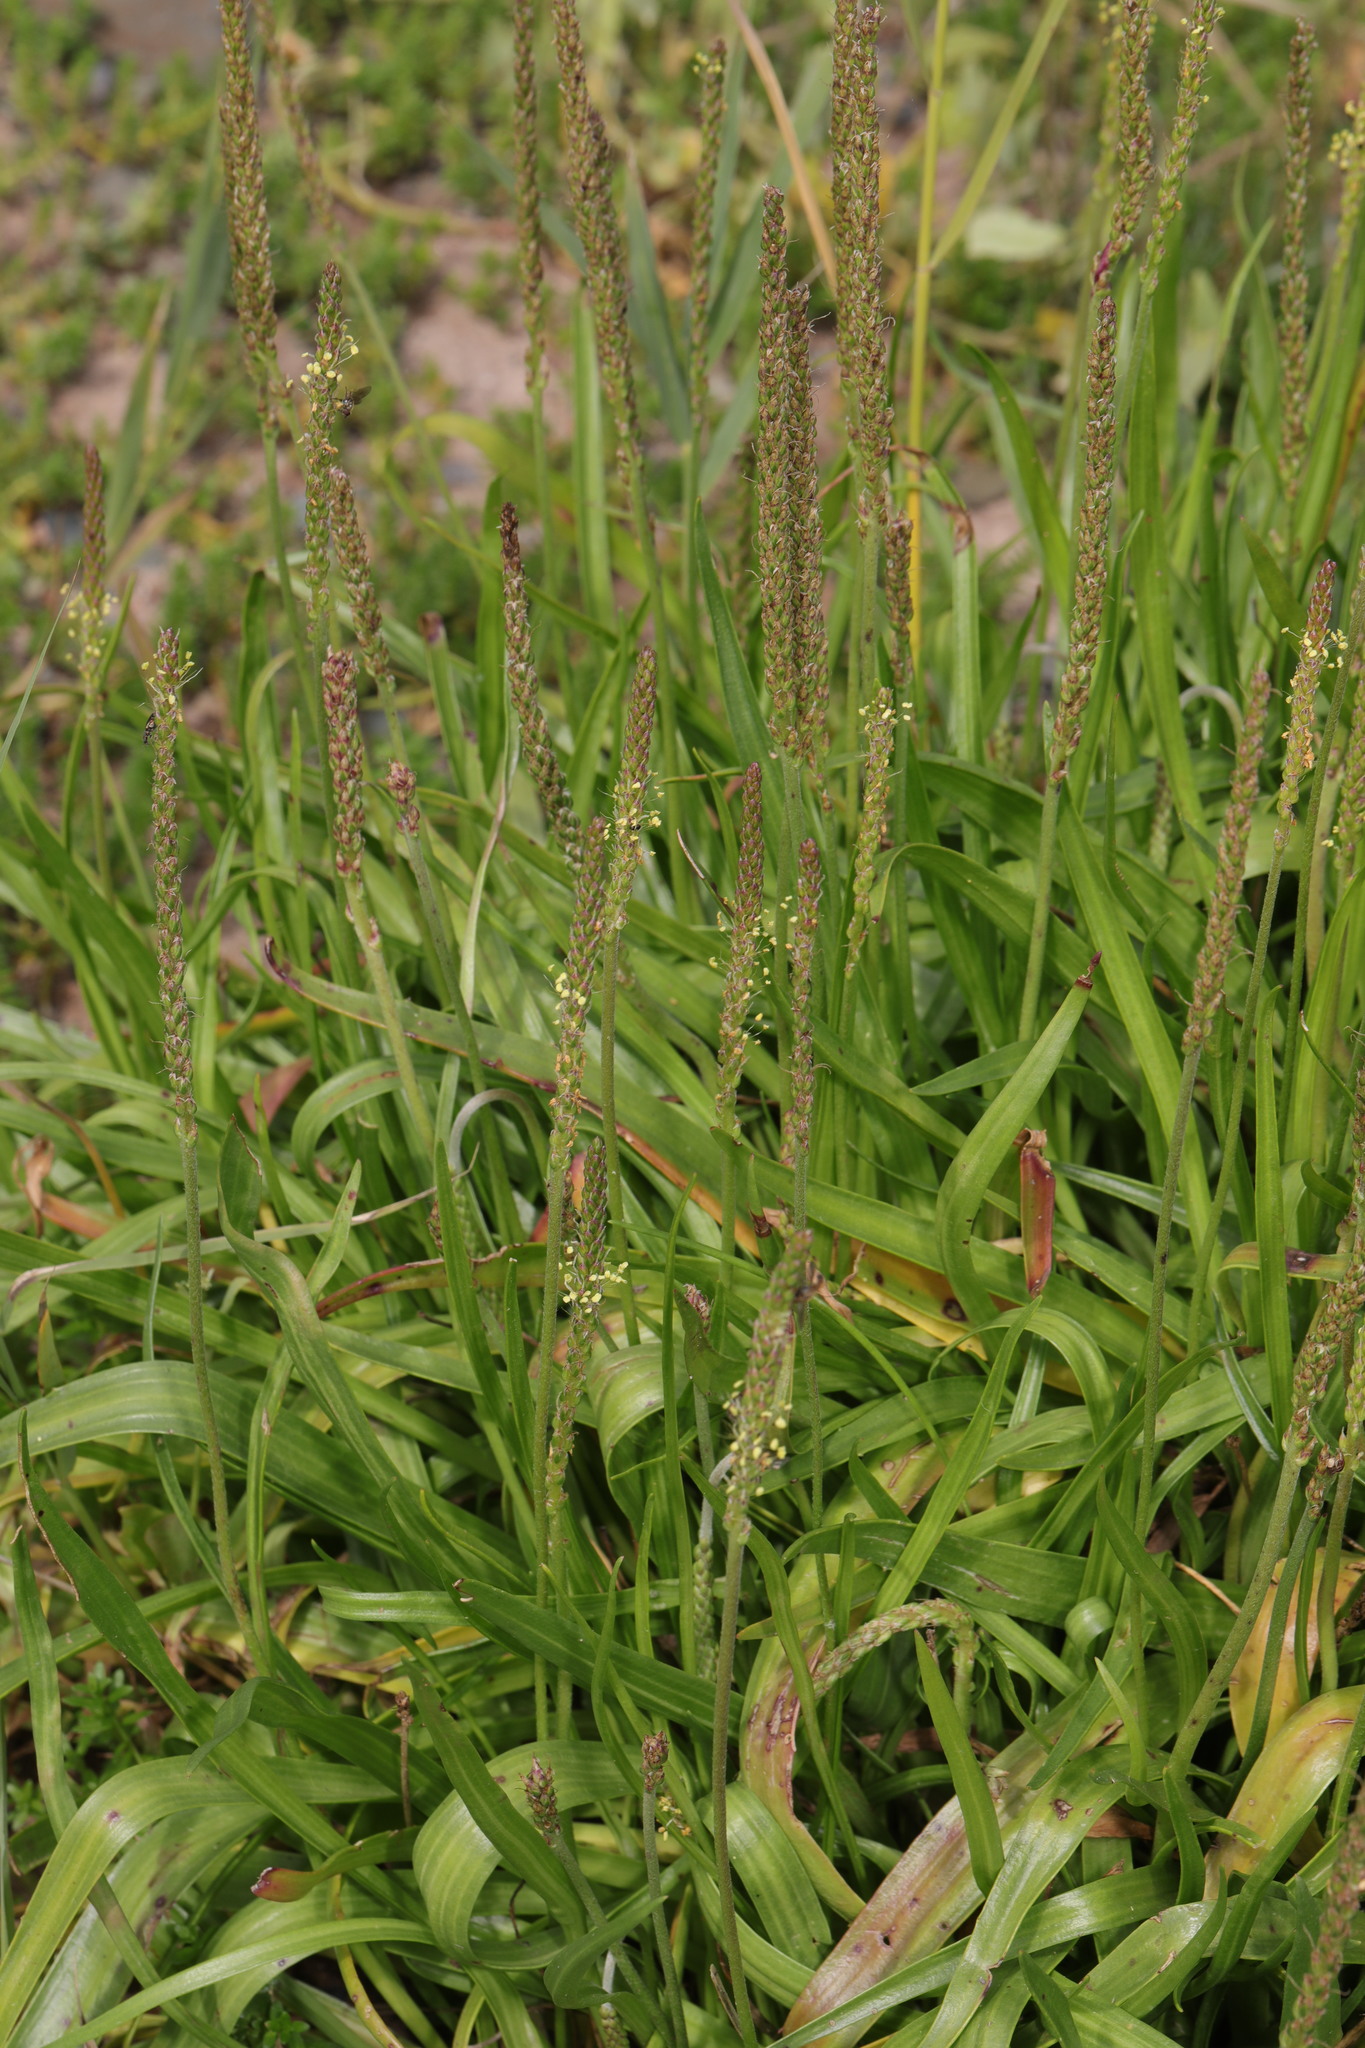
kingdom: Plantae
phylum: Tracheophyta
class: Magnoliopsida
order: Lamiales
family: Plantaginaceae
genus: Plantago
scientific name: Plantago maritima
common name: Sea plantain
